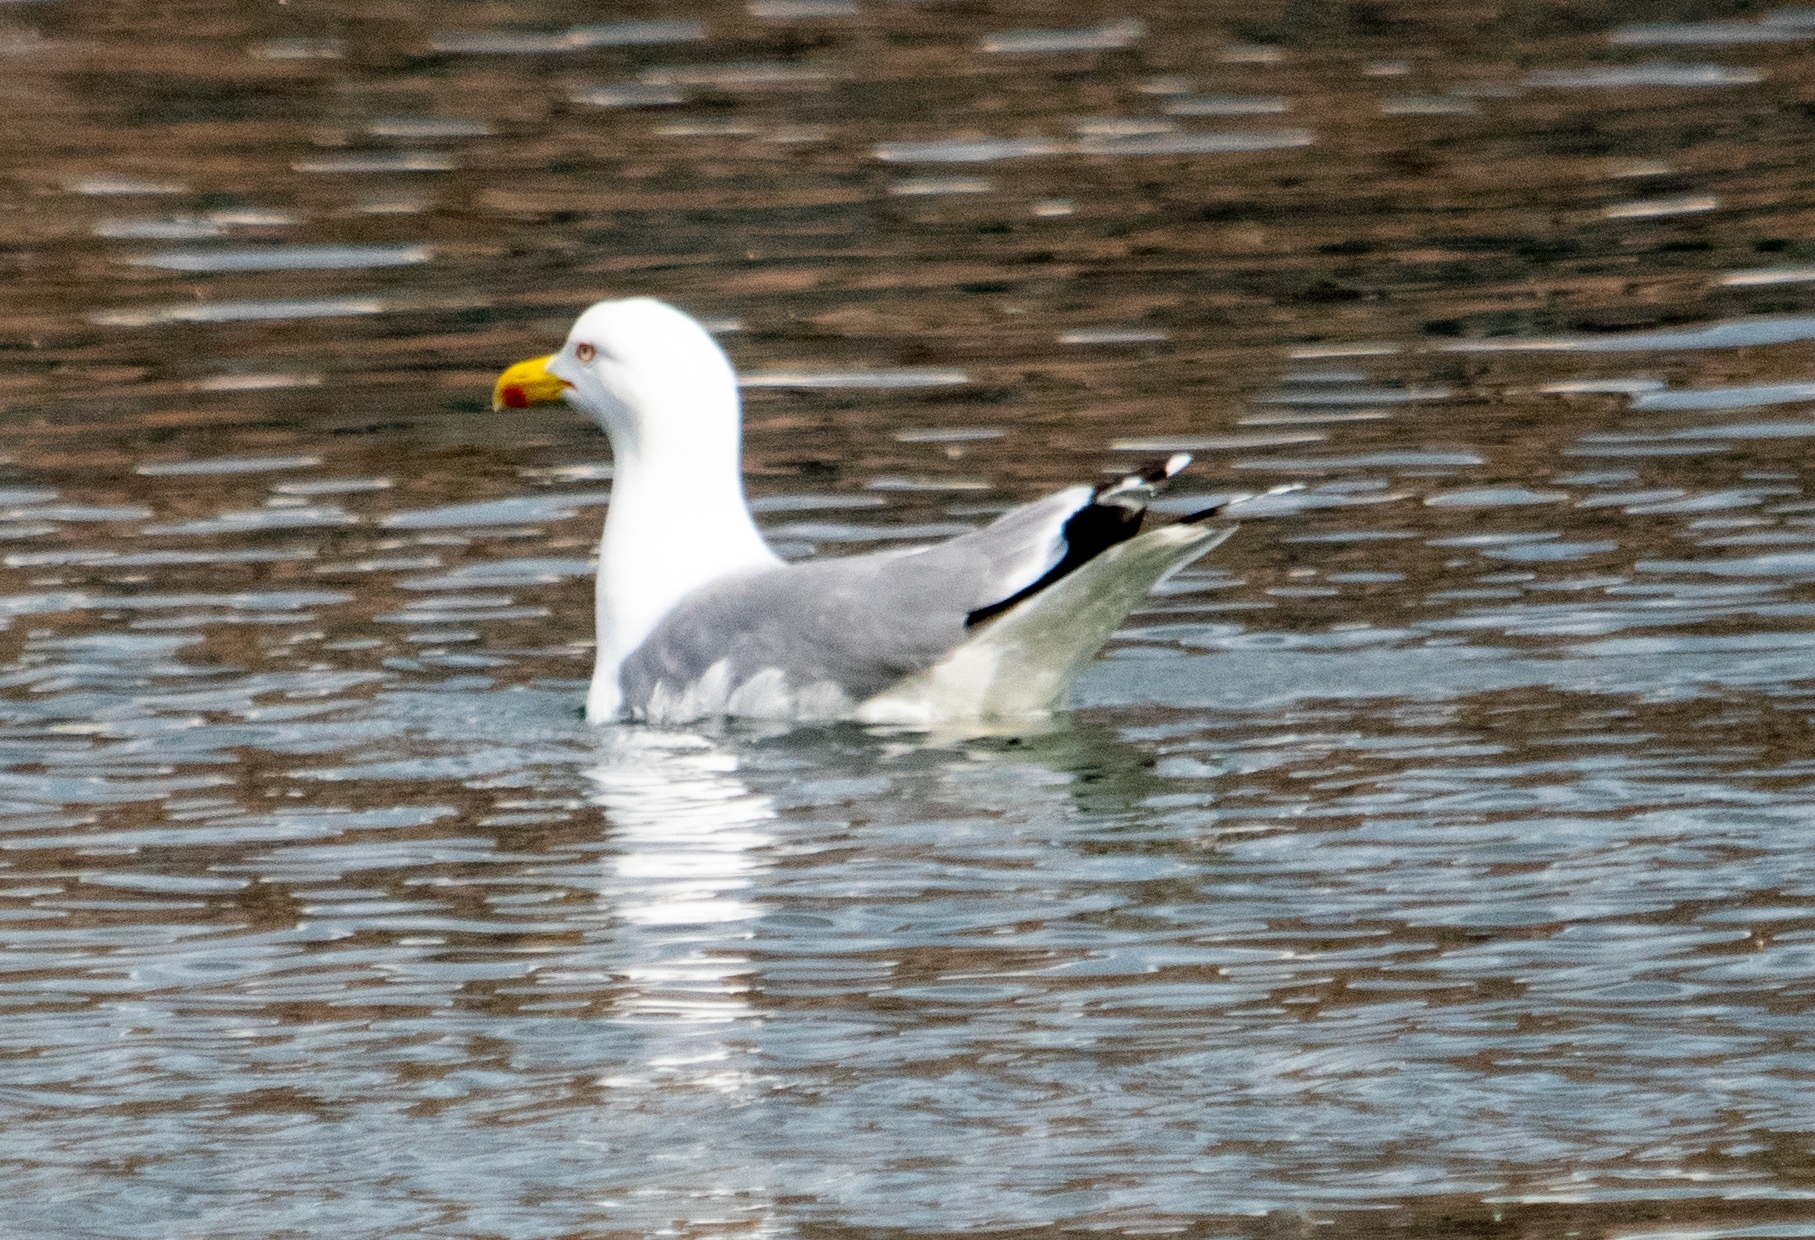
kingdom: Animalia
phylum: Chordata
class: Aves
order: Charadriiformes
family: Laridae
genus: Larus
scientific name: Larus michahellis
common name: Yellow-legged gull
